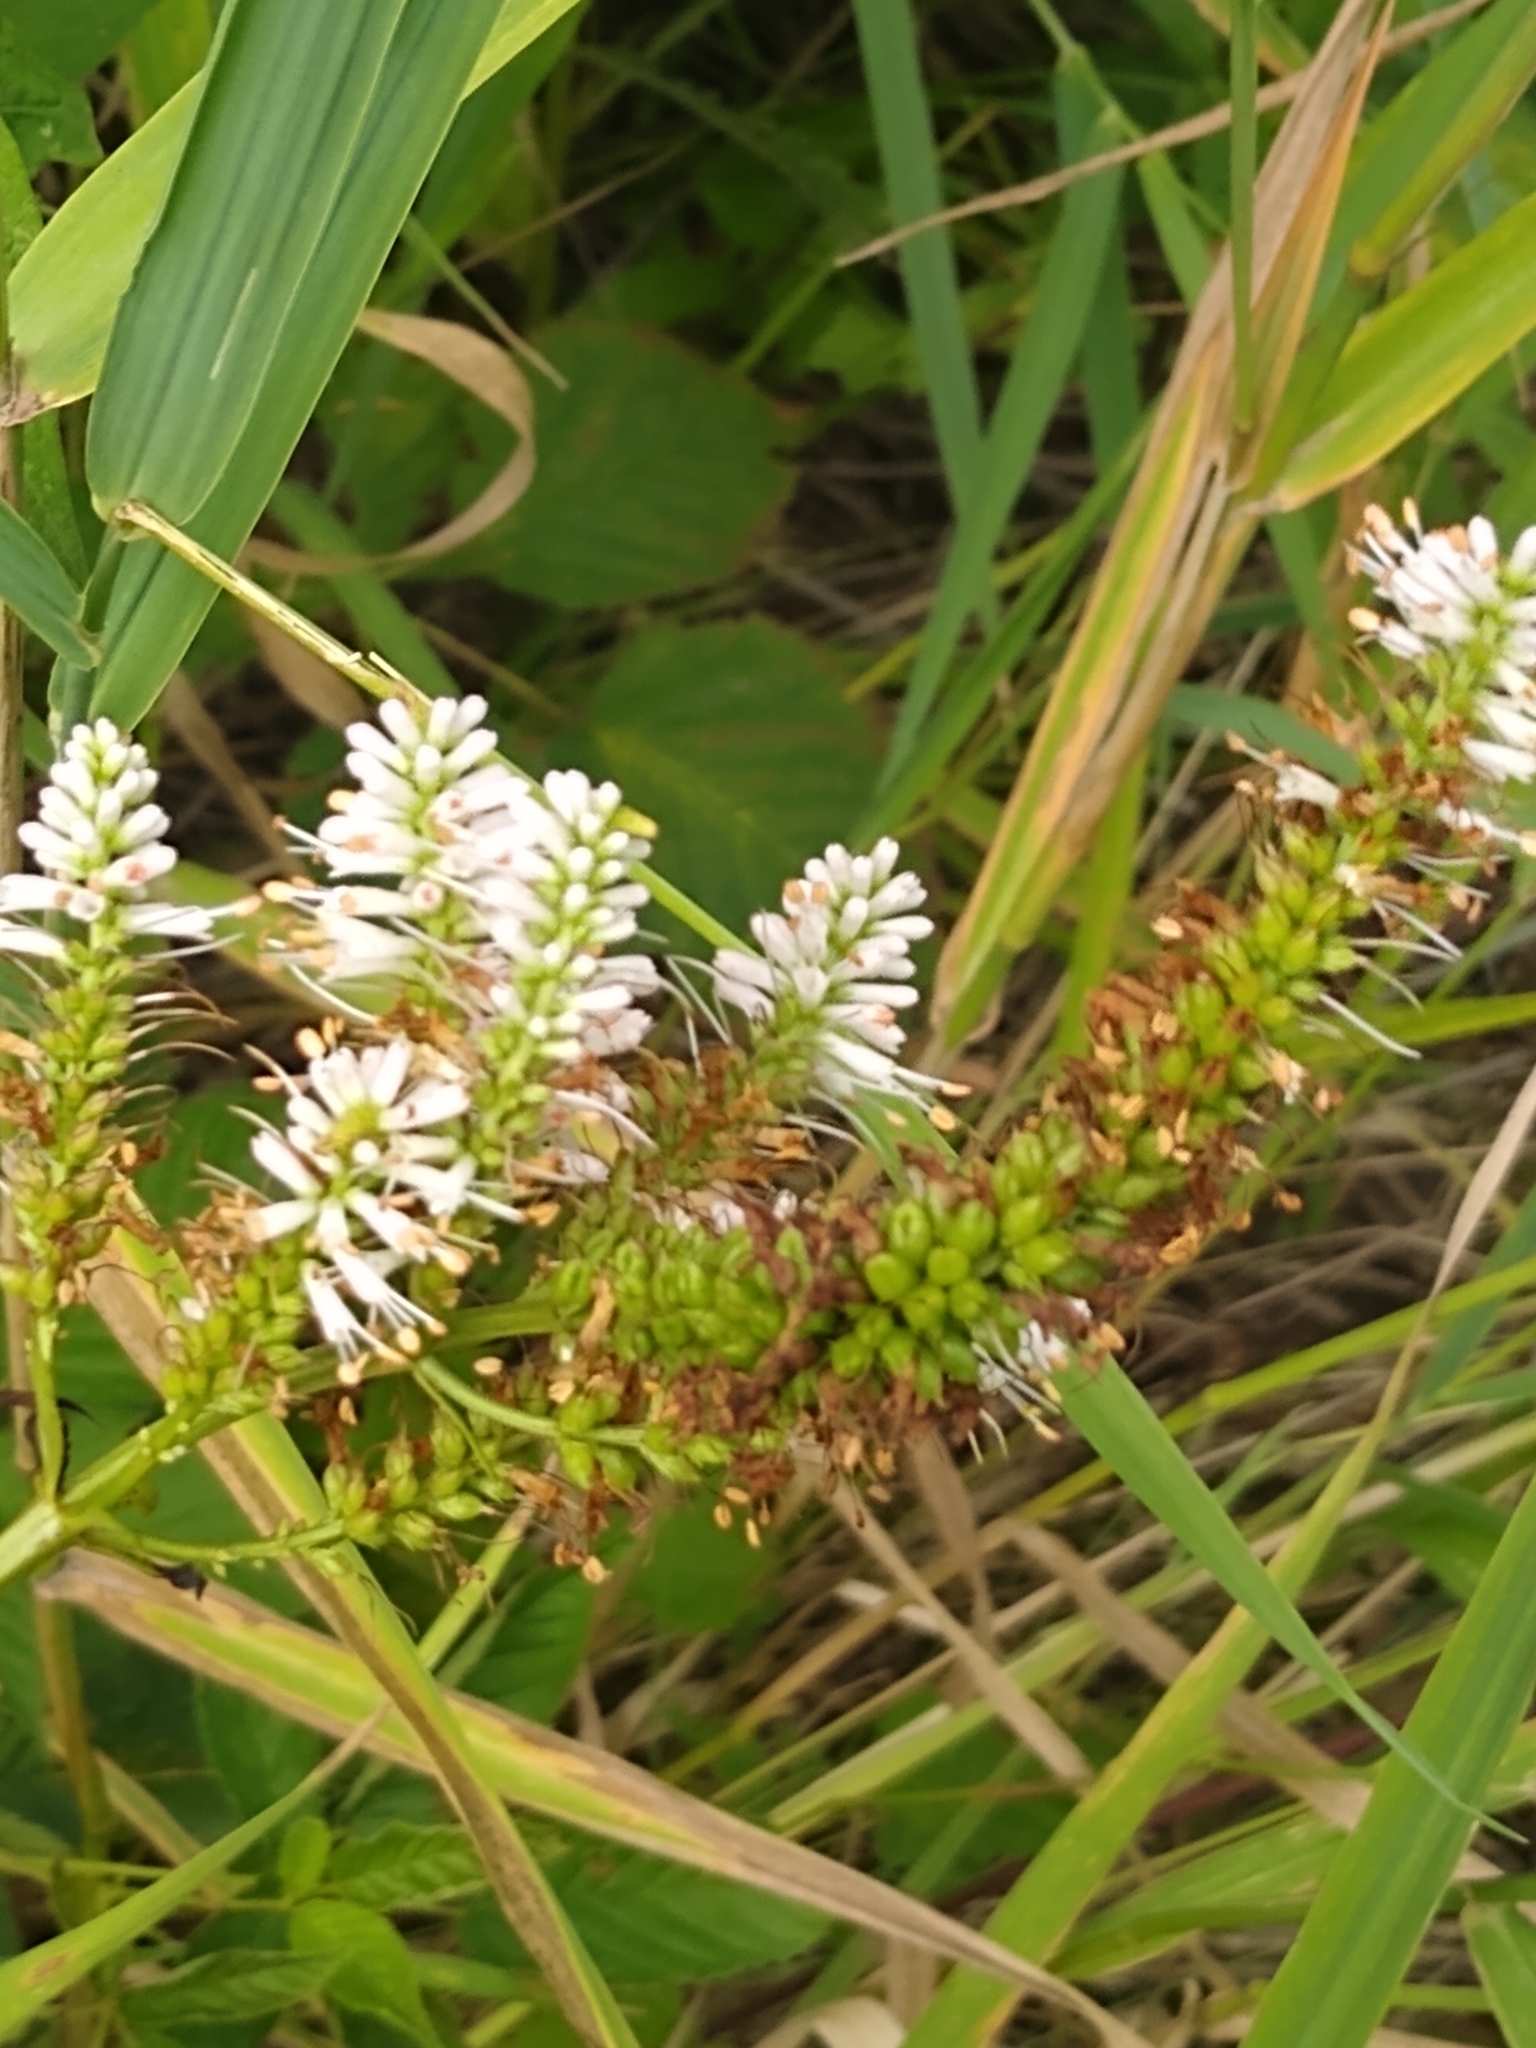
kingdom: Plantae
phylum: Tracheophyta
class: Magnoliopsida
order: Lamiales
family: Plantaginaceae
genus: Veronicastrum
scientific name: Veronicastrum virginicum
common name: Blackroot
